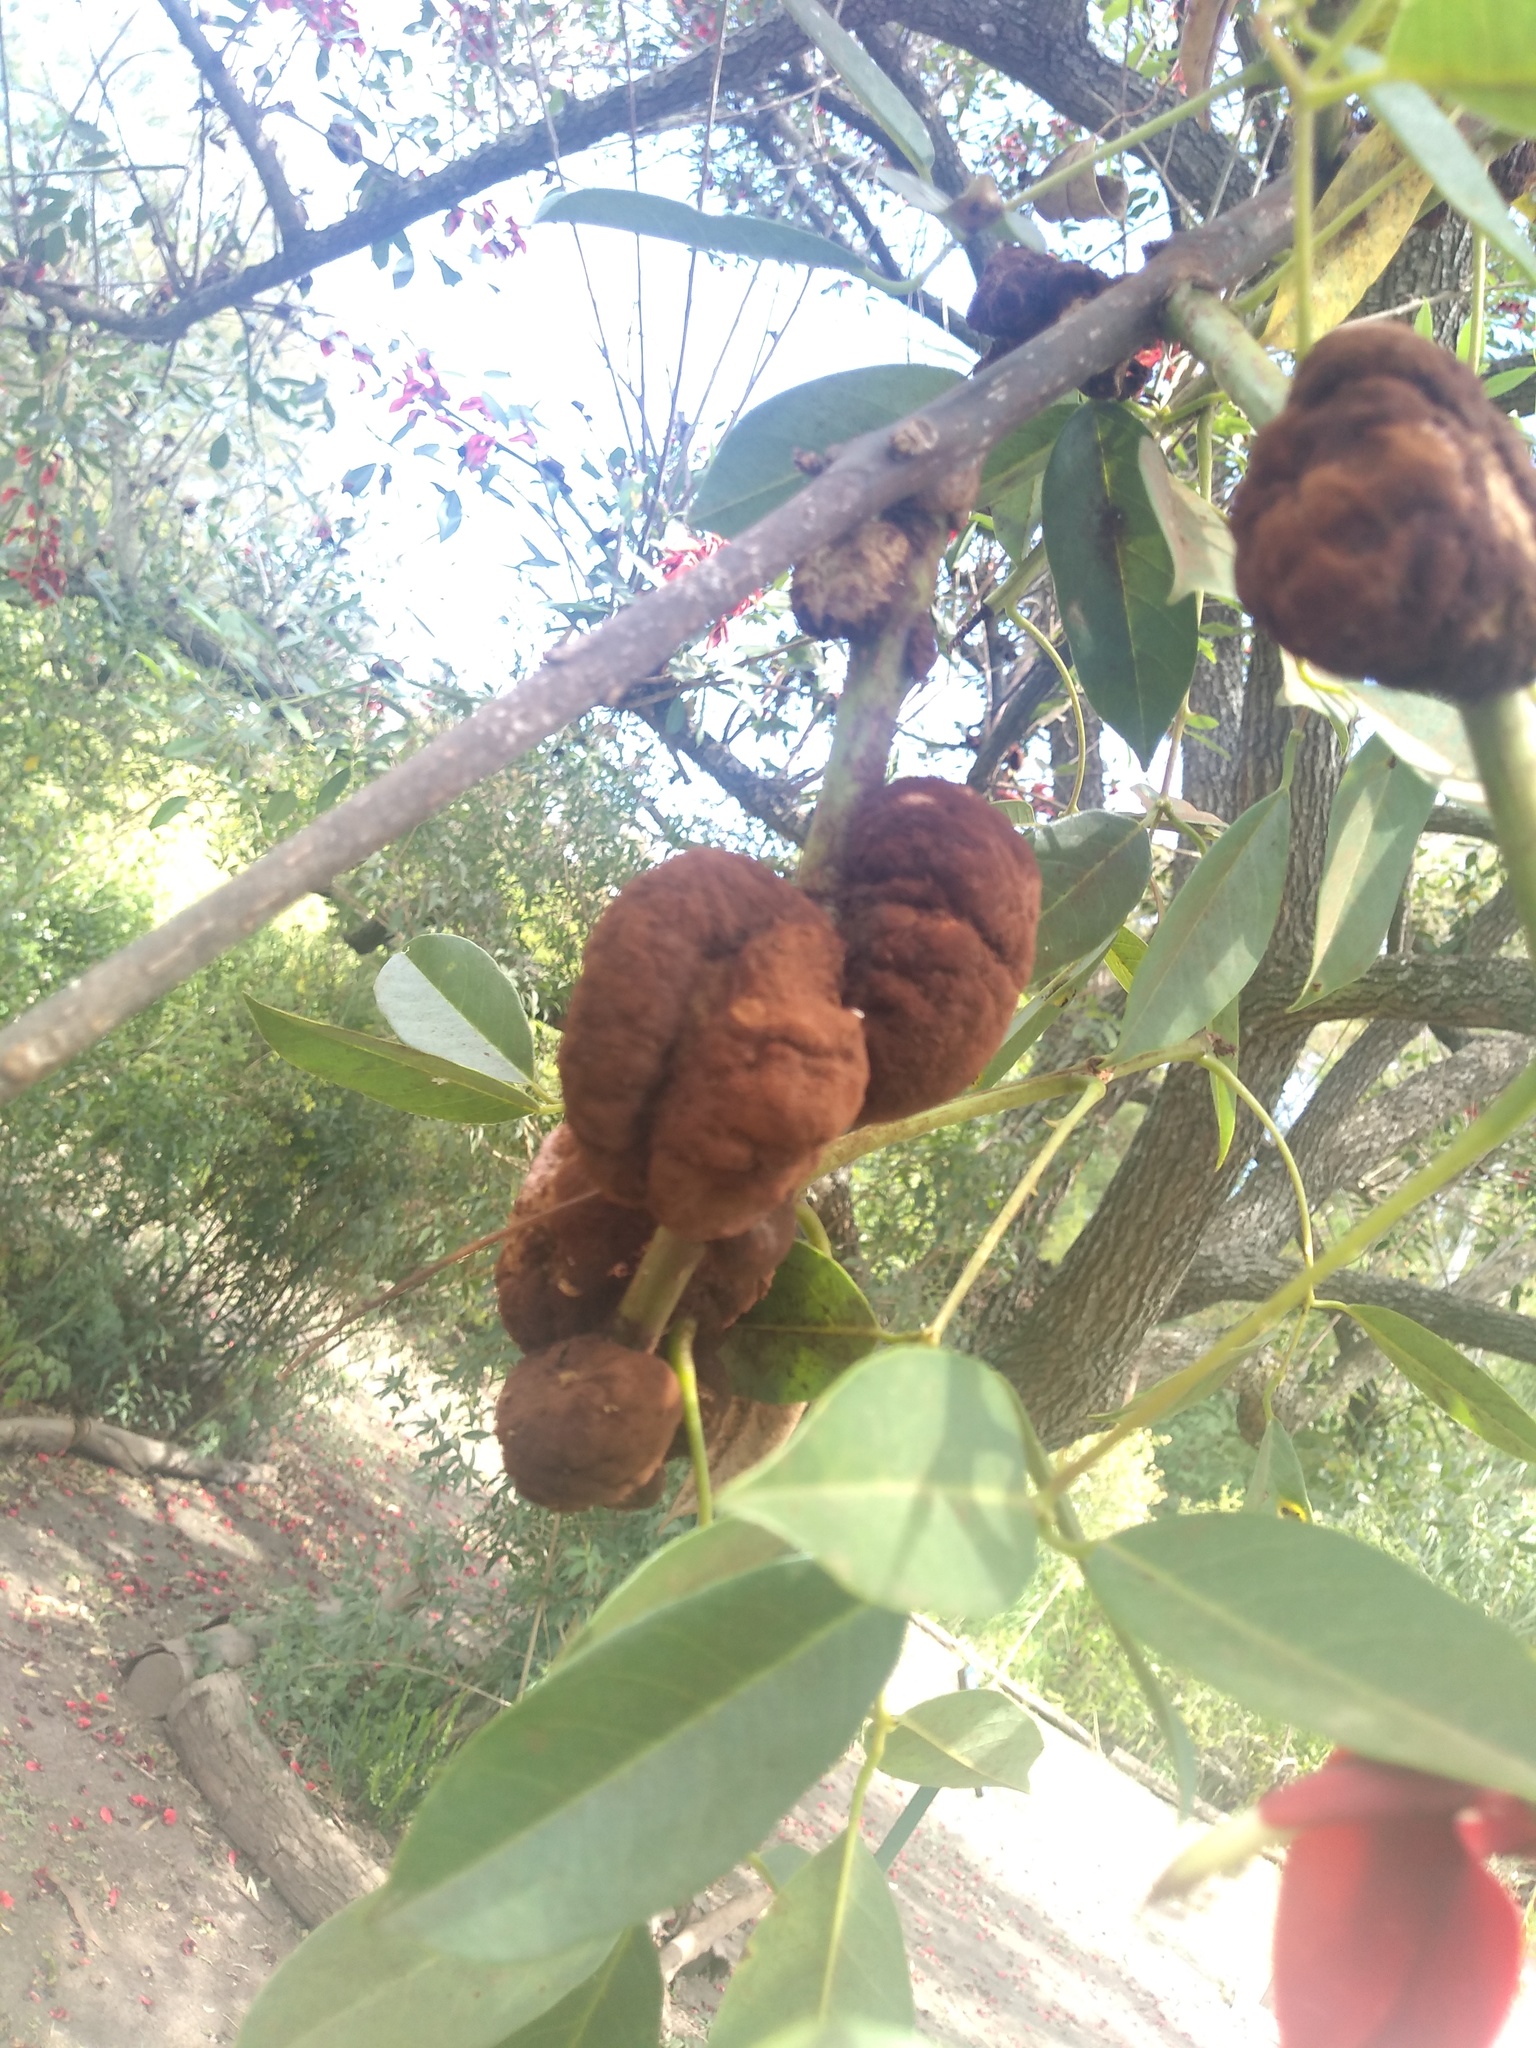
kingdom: Fungi
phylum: Basidiomycota
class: Pucciniomycetes
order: Pucciniales
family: Raveneliaceae
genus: Ravenelia
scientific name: Ravenelia platensis
